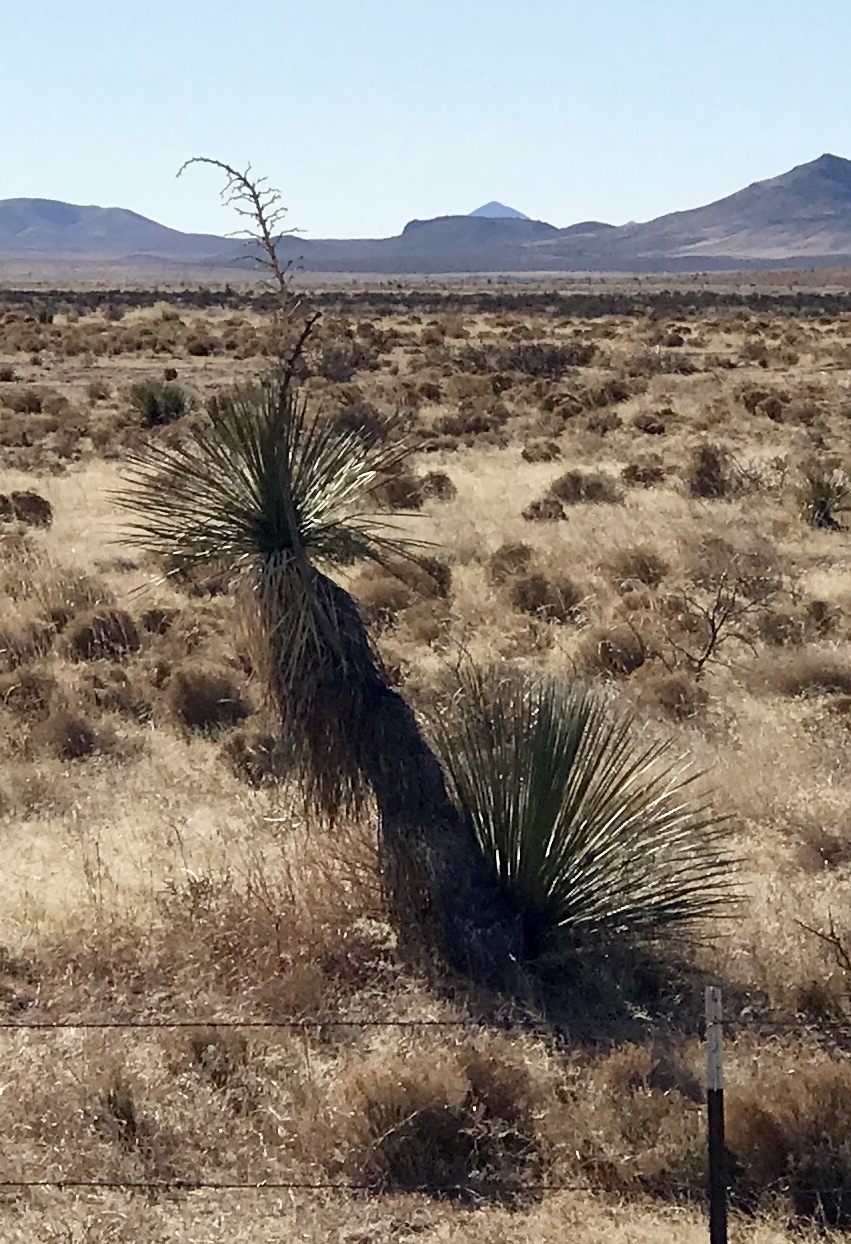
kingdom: Plantae
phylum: Tracheophyta
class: Liliopsida
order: Asparagales
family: Asparagaceae
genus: Yucca
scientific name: Yucca elata
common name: Palmella
